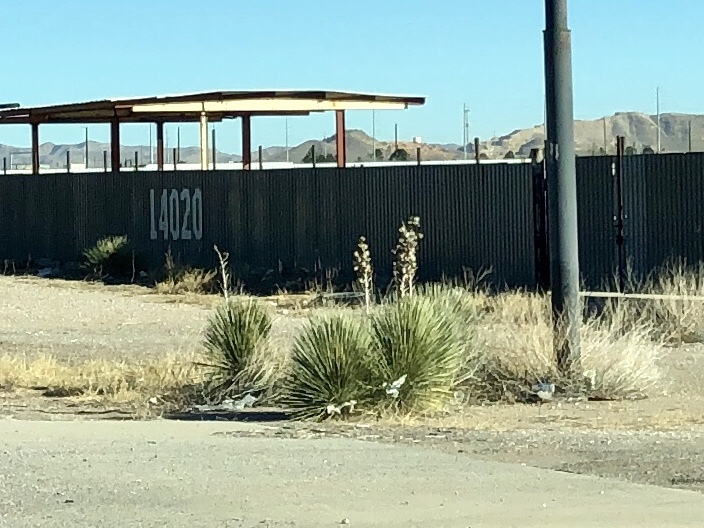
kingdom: Plantae
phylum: Tracheophyta
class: Liliopsida
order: Asparagales
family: Asparagaceae
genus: Yucca
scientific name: Yucca elata
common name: Palmella
